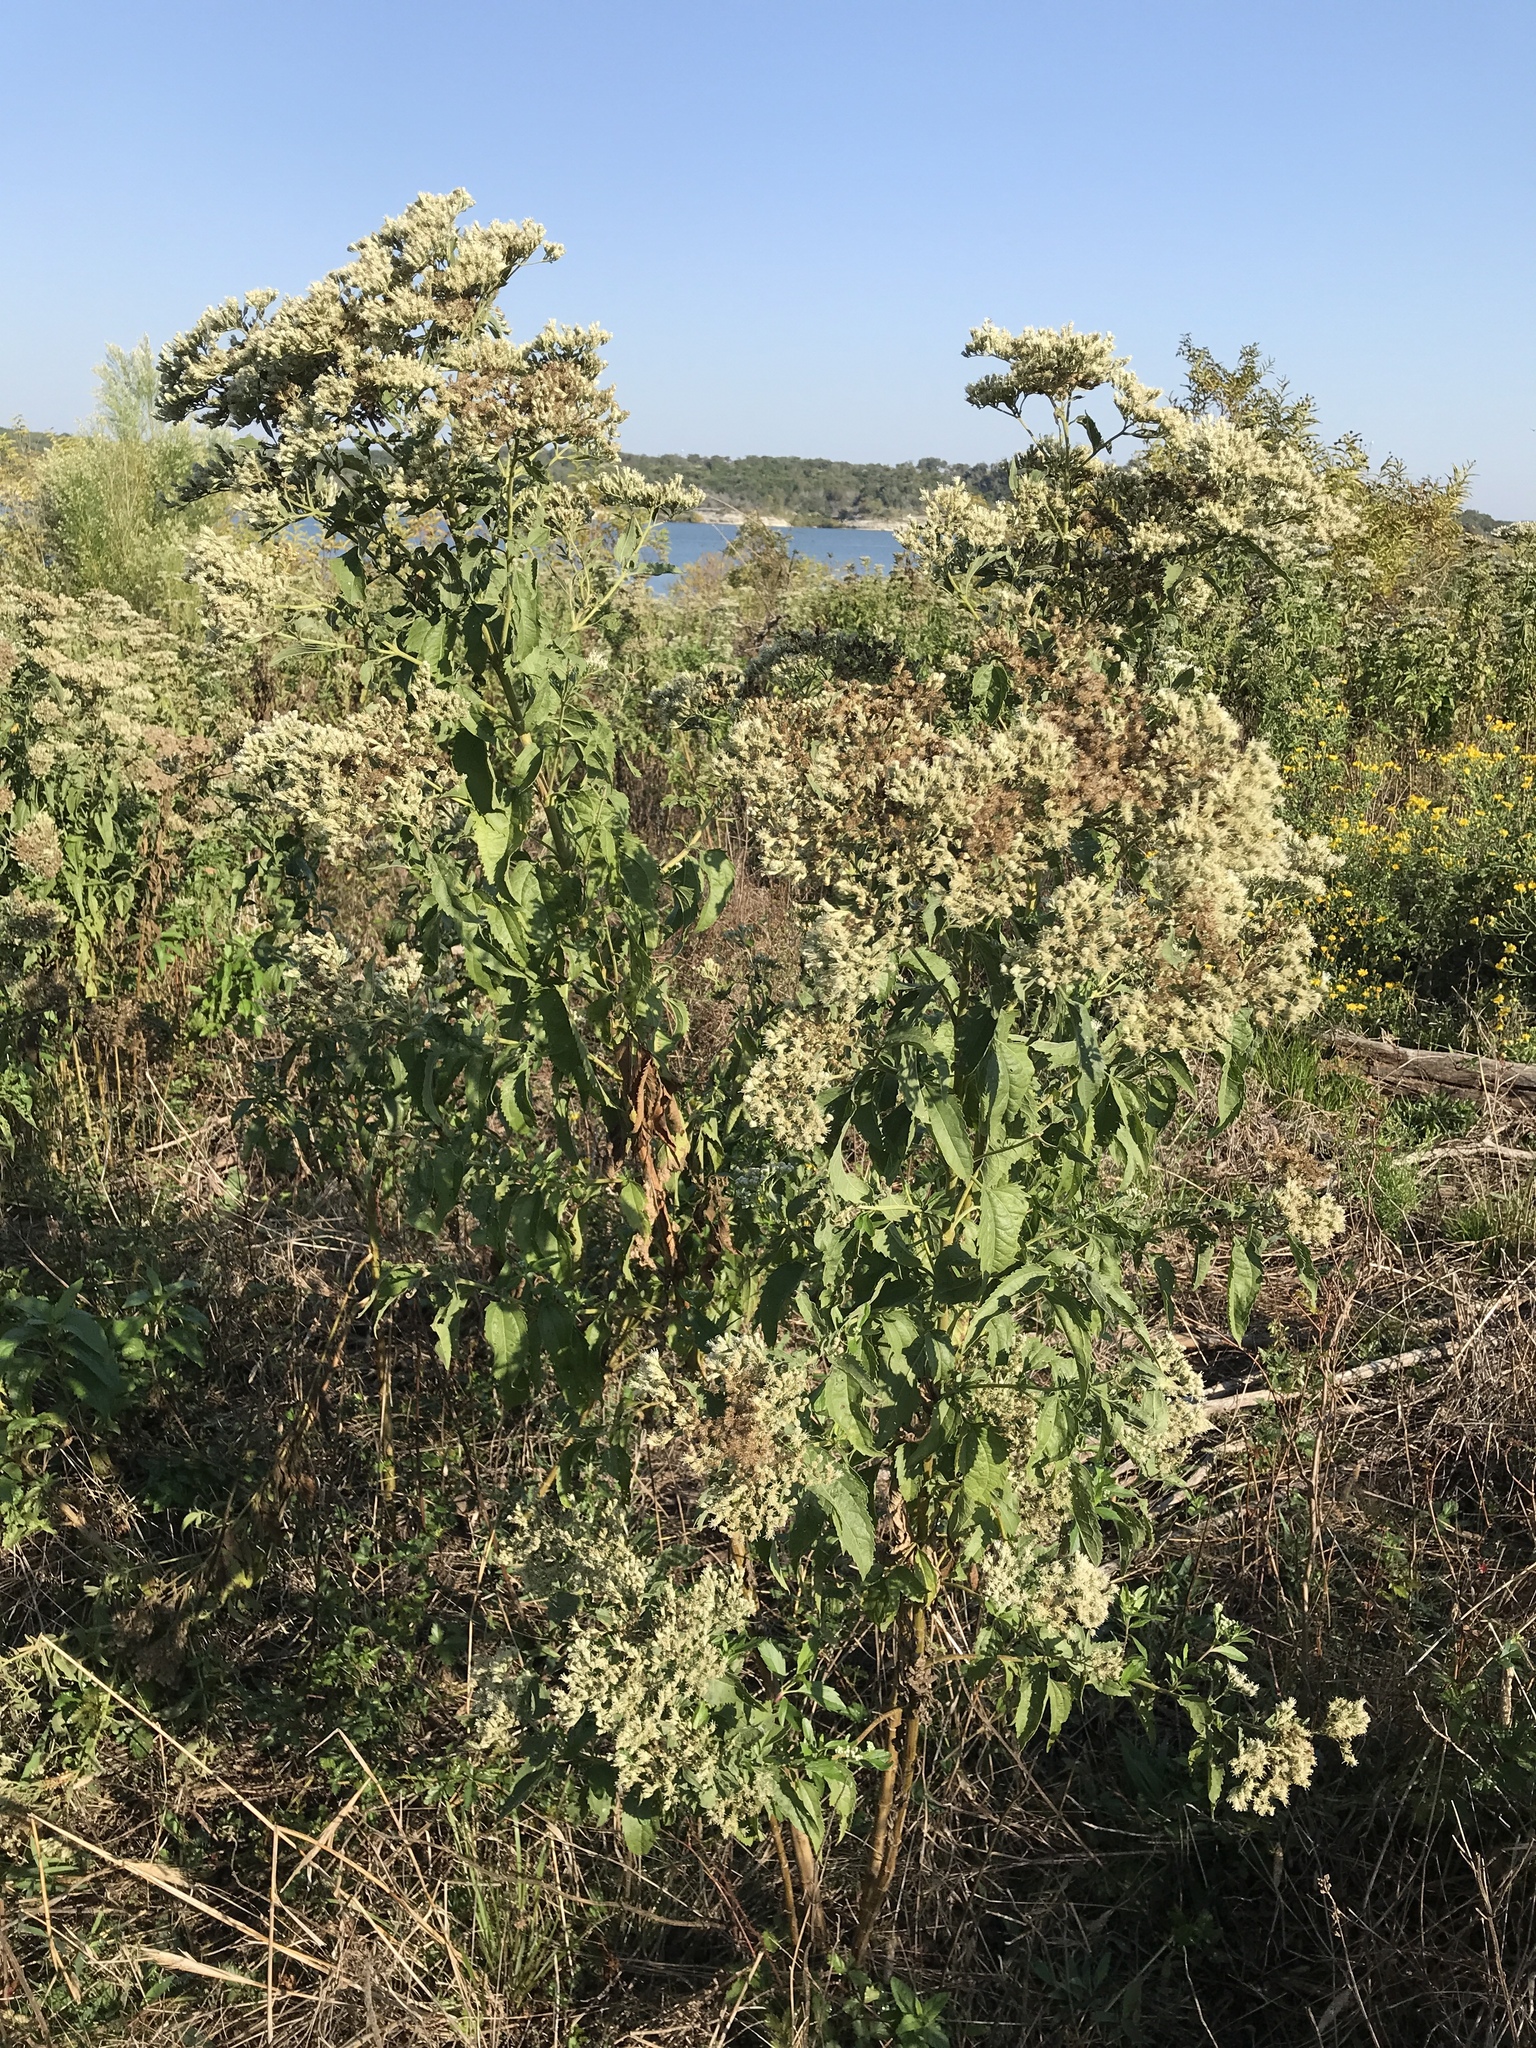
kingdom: Plantae
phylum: Tracheophyta
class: Magnoliopsida
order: Asterales
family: Asteraceae
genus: Eupatorium
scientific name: Eupatorium serotinum
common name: Late boneset
